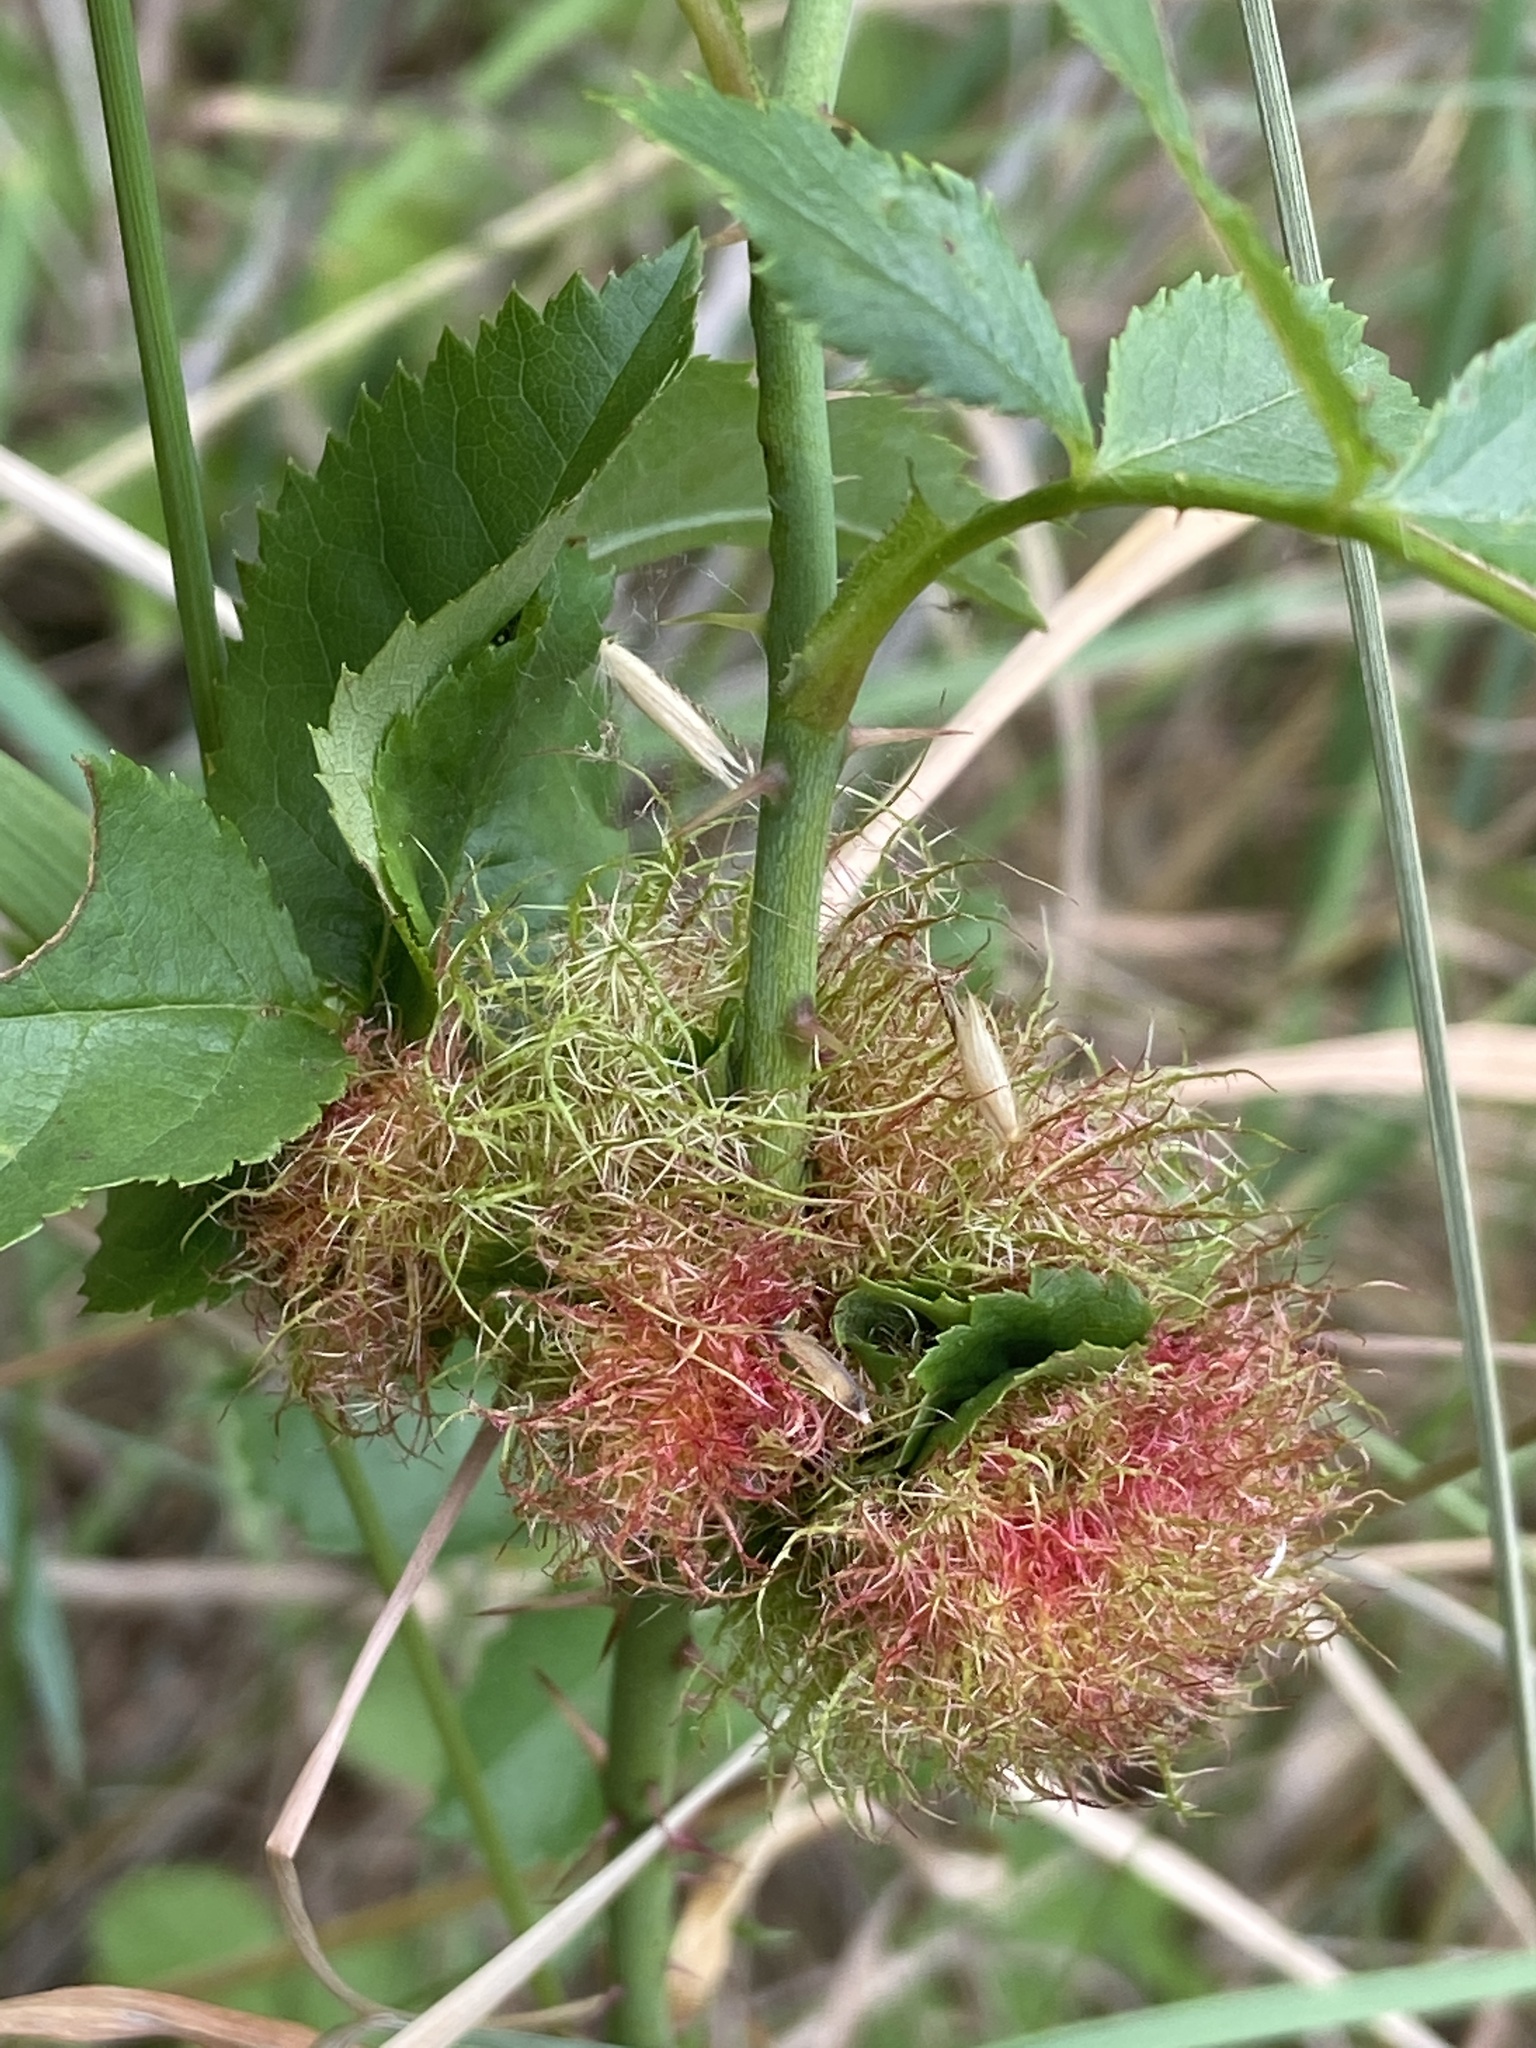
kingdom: Animalia
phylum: Arthropoda
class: Insecta
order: Hymenoptera
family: Cynipidae
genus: Diplolepis
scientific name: Diplolepis rosae
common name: Bedeguar gall
